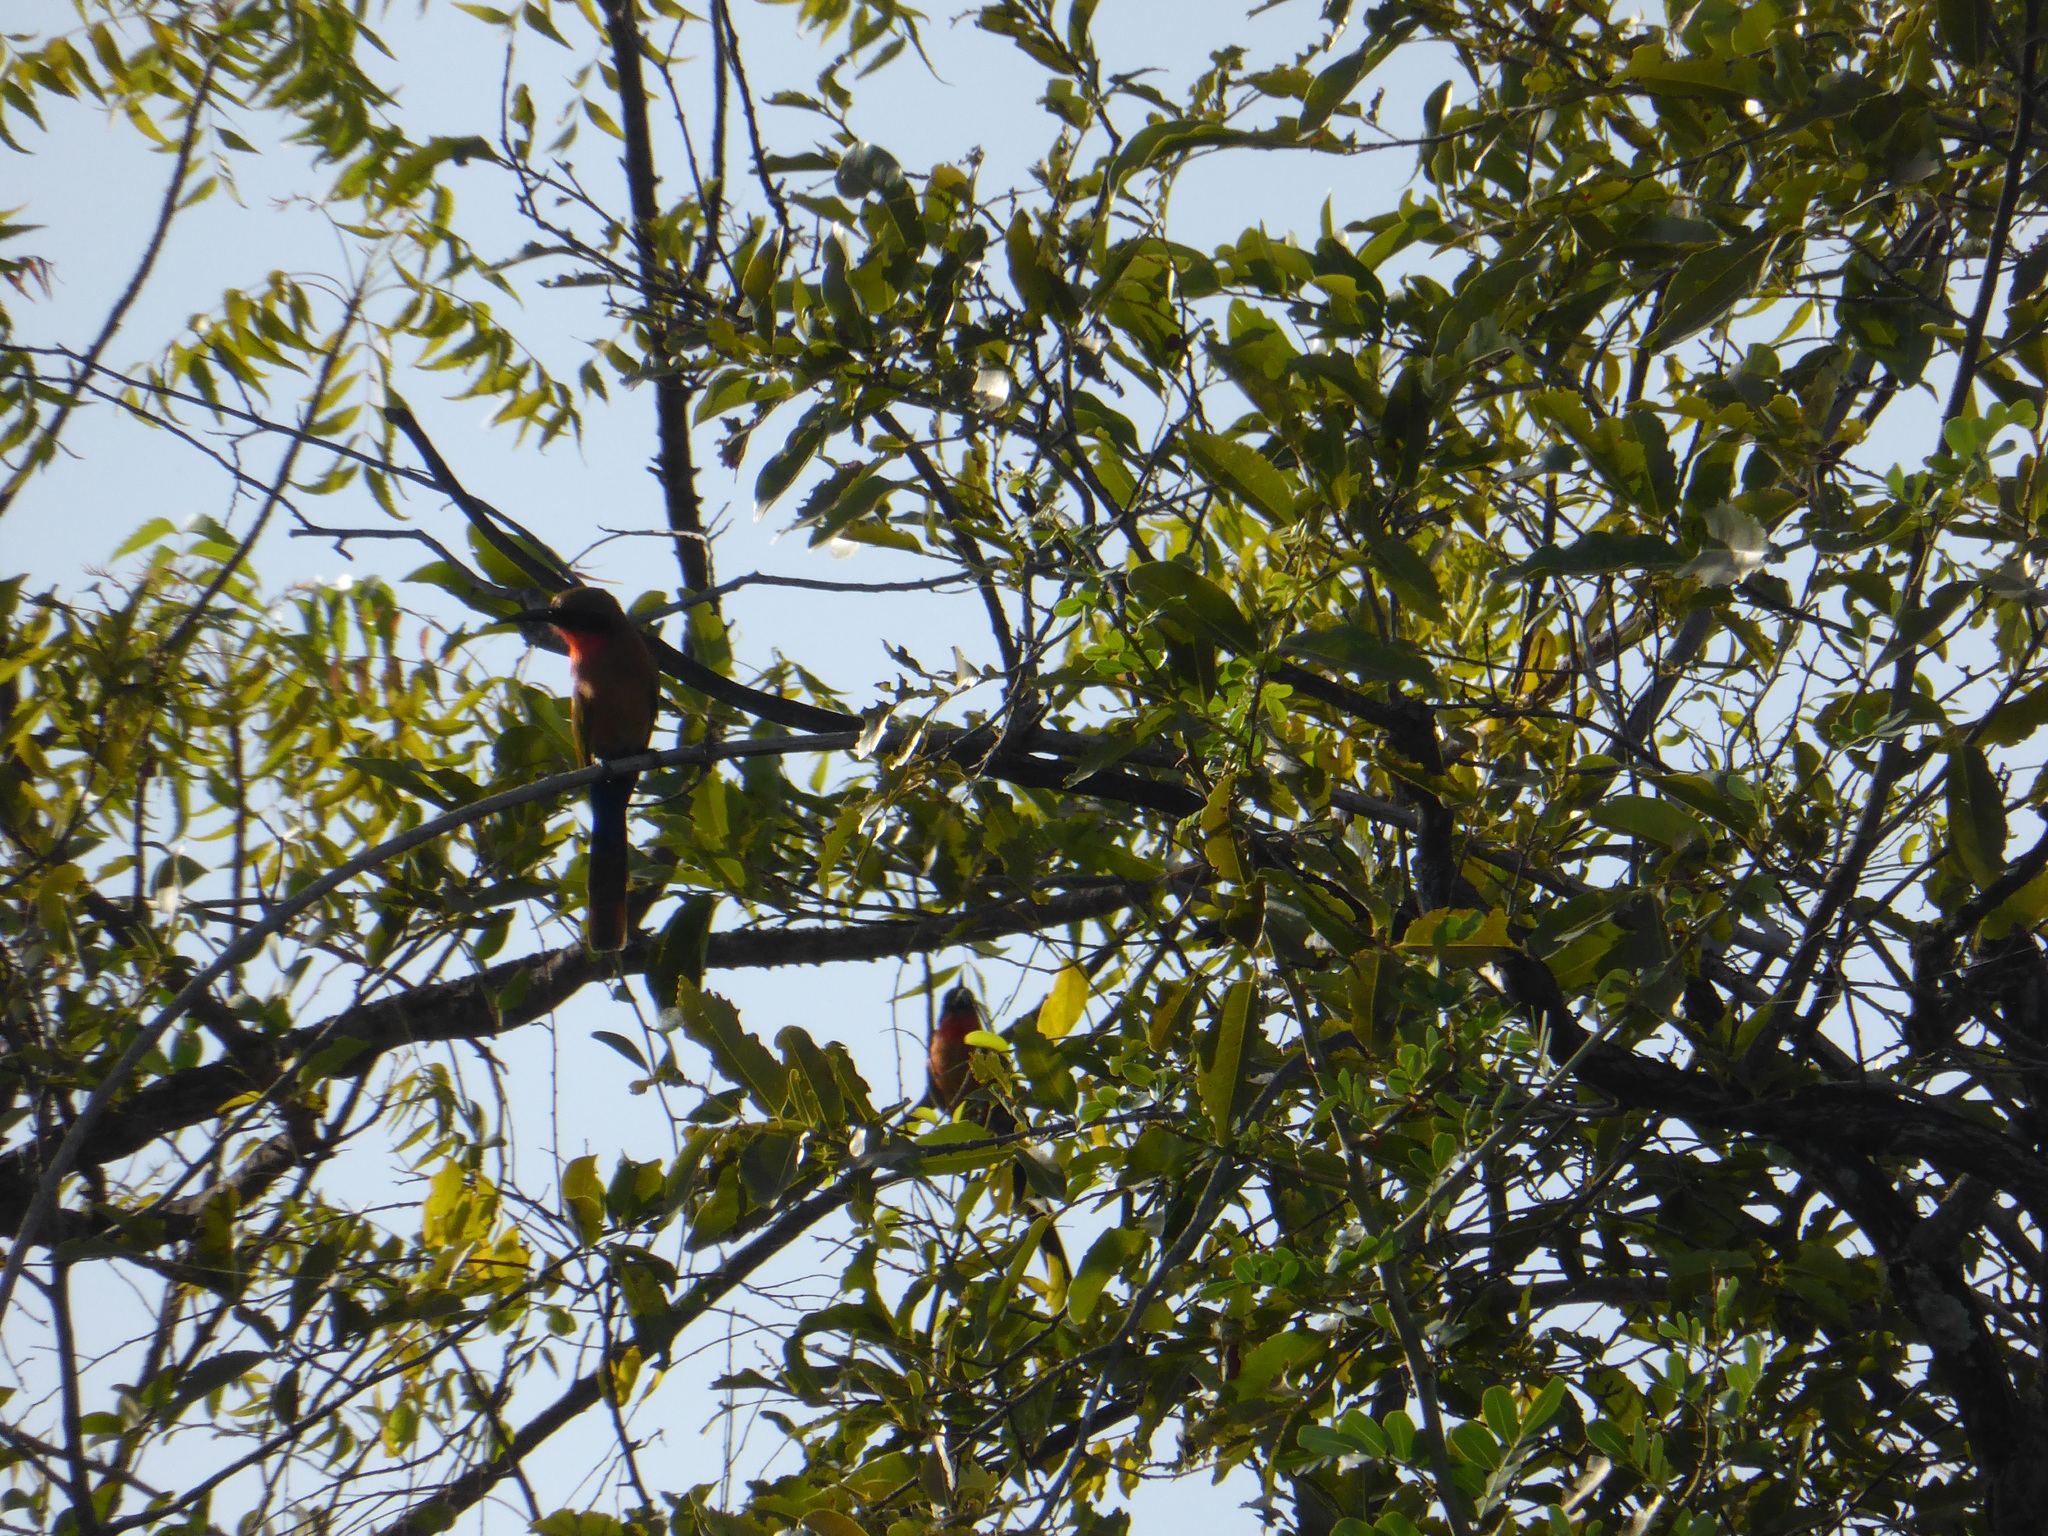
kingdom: Animalia
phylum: Chordata
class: Aves
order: Coraciiformes
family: Meropidae
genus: Merops
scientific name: Merops bulocki
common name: Red-throated bee-eater
